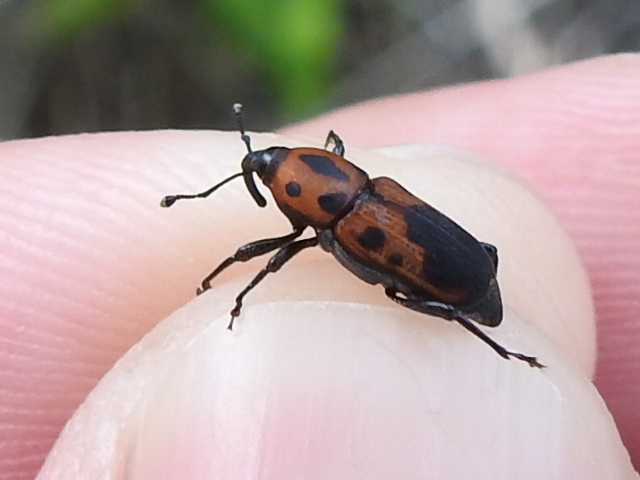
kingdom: Animalia
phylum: Arthropoda
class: Insecta
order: Coleoptera
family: Dryophthoridae
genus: Rhodobaenus
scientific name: Rhodobaenus quinquepunctatus
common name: Cocklebur weevil
